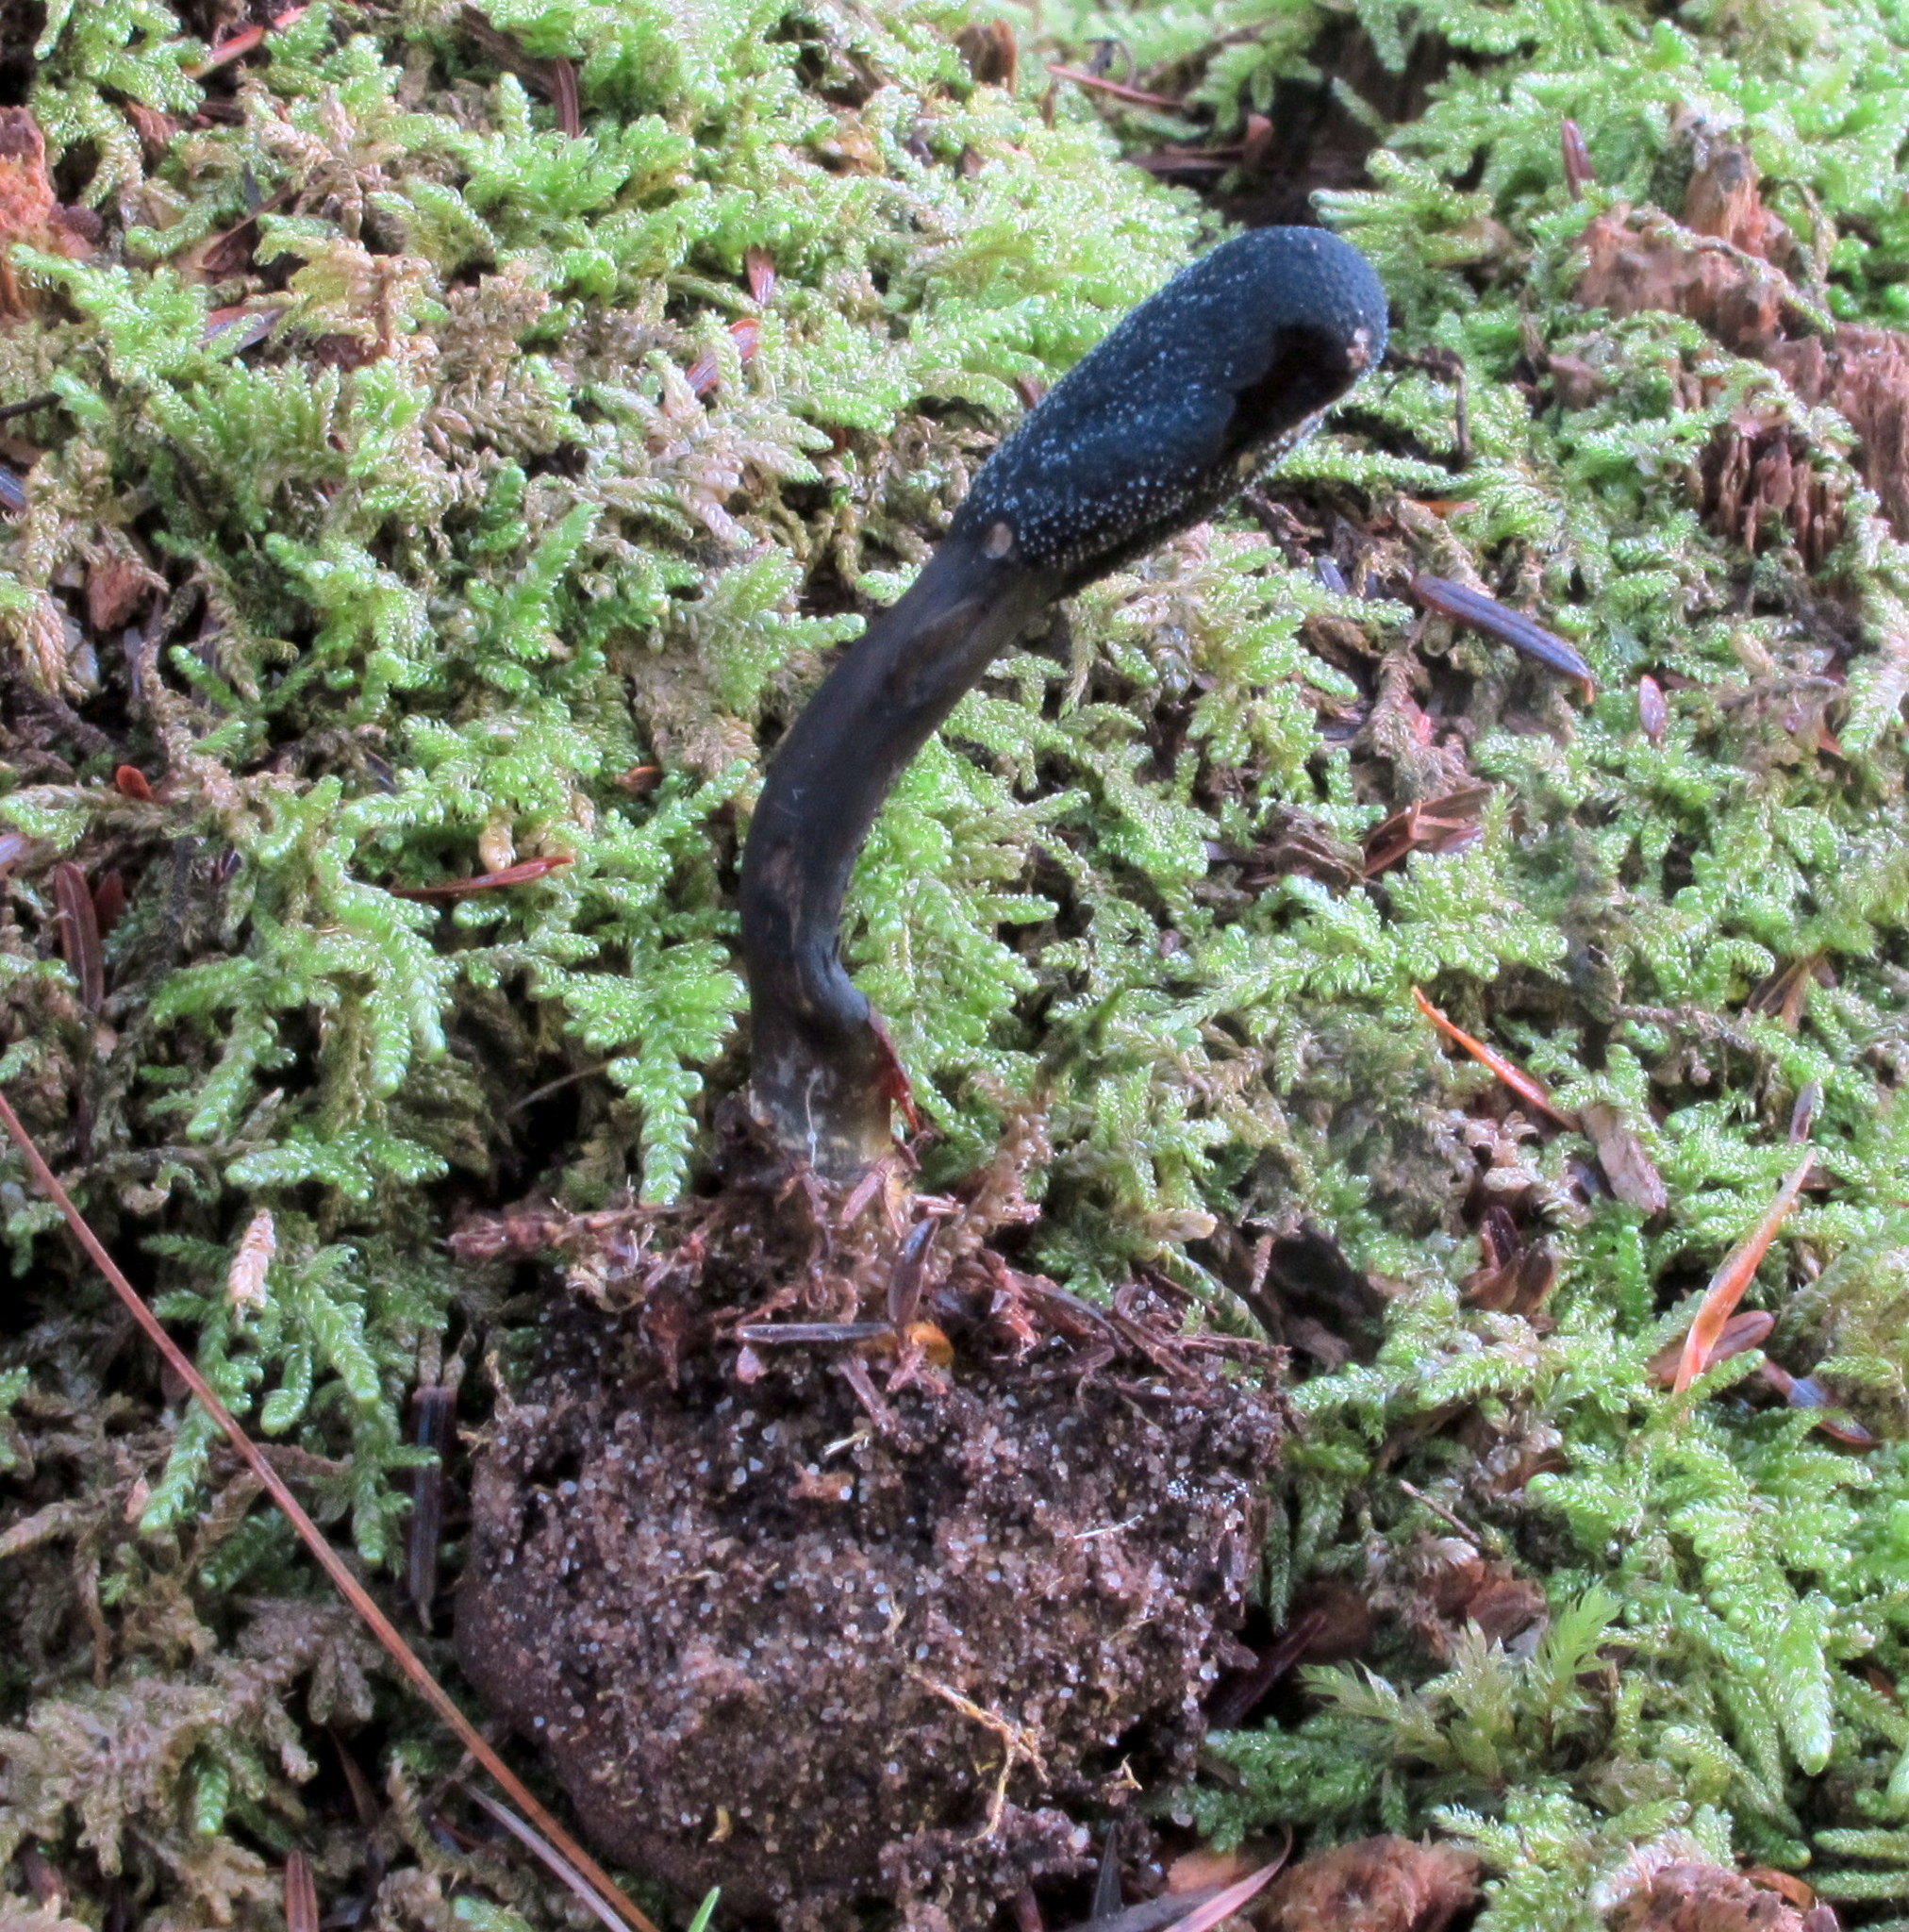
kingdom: Fungi
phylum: Ascomycota
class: Sordariomycetes
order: Hypocreales
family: Ophiocordycipitaceae
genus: Tolypocladium
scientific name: Tolypocladium ophioglossoides
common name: Snaketongue truffleclub
